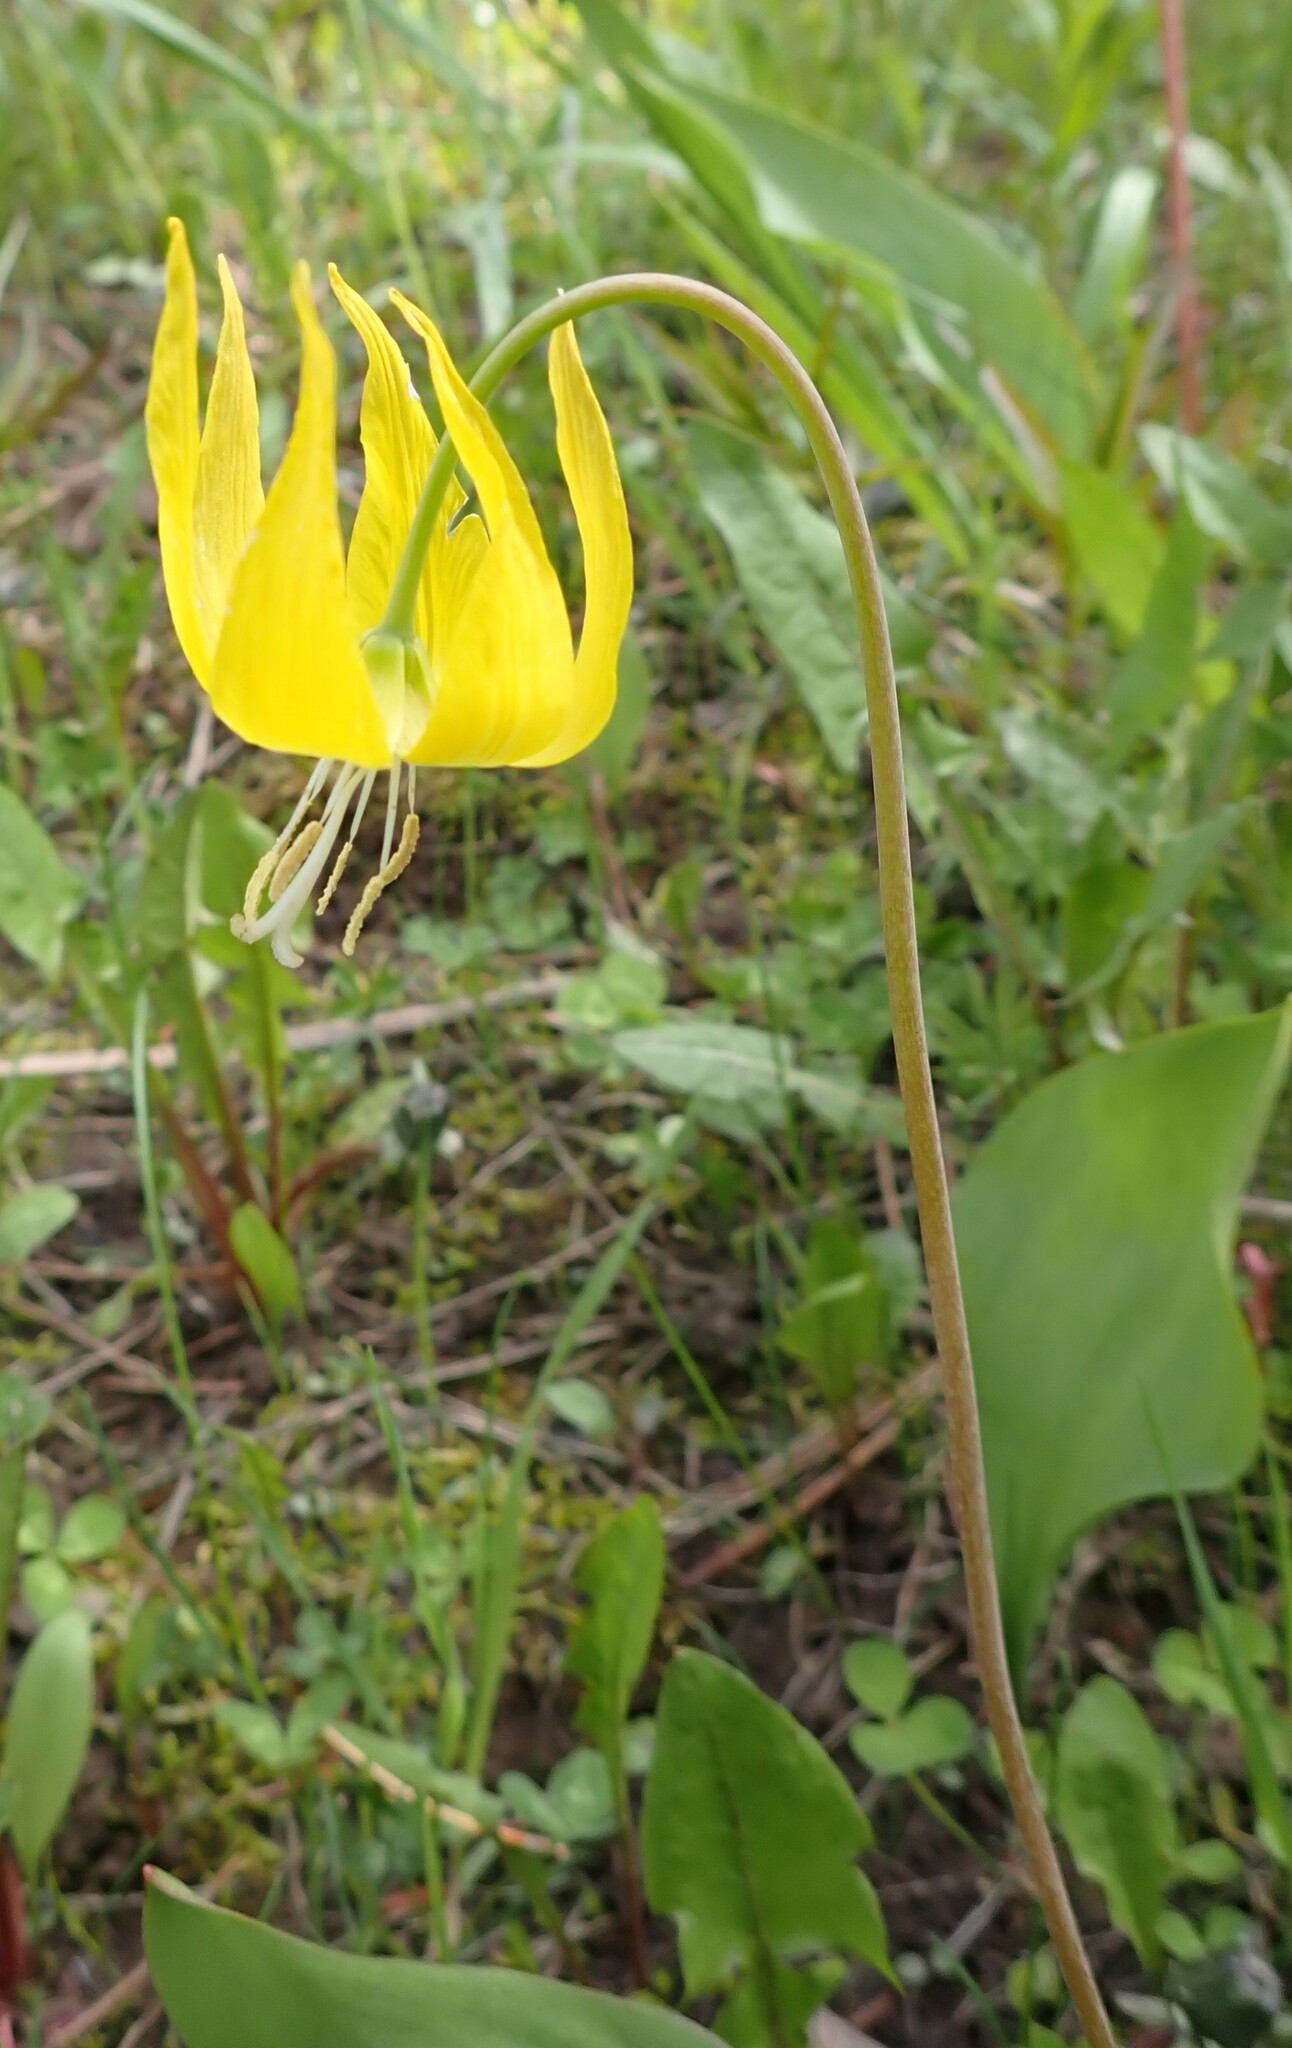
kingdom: Plantae
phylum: Tracheophyta
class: Liliopsida
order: Liliales
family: Liliaceae
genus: Erythronium
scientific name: Erythronium grandiflorum
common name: Avalanche-lily
